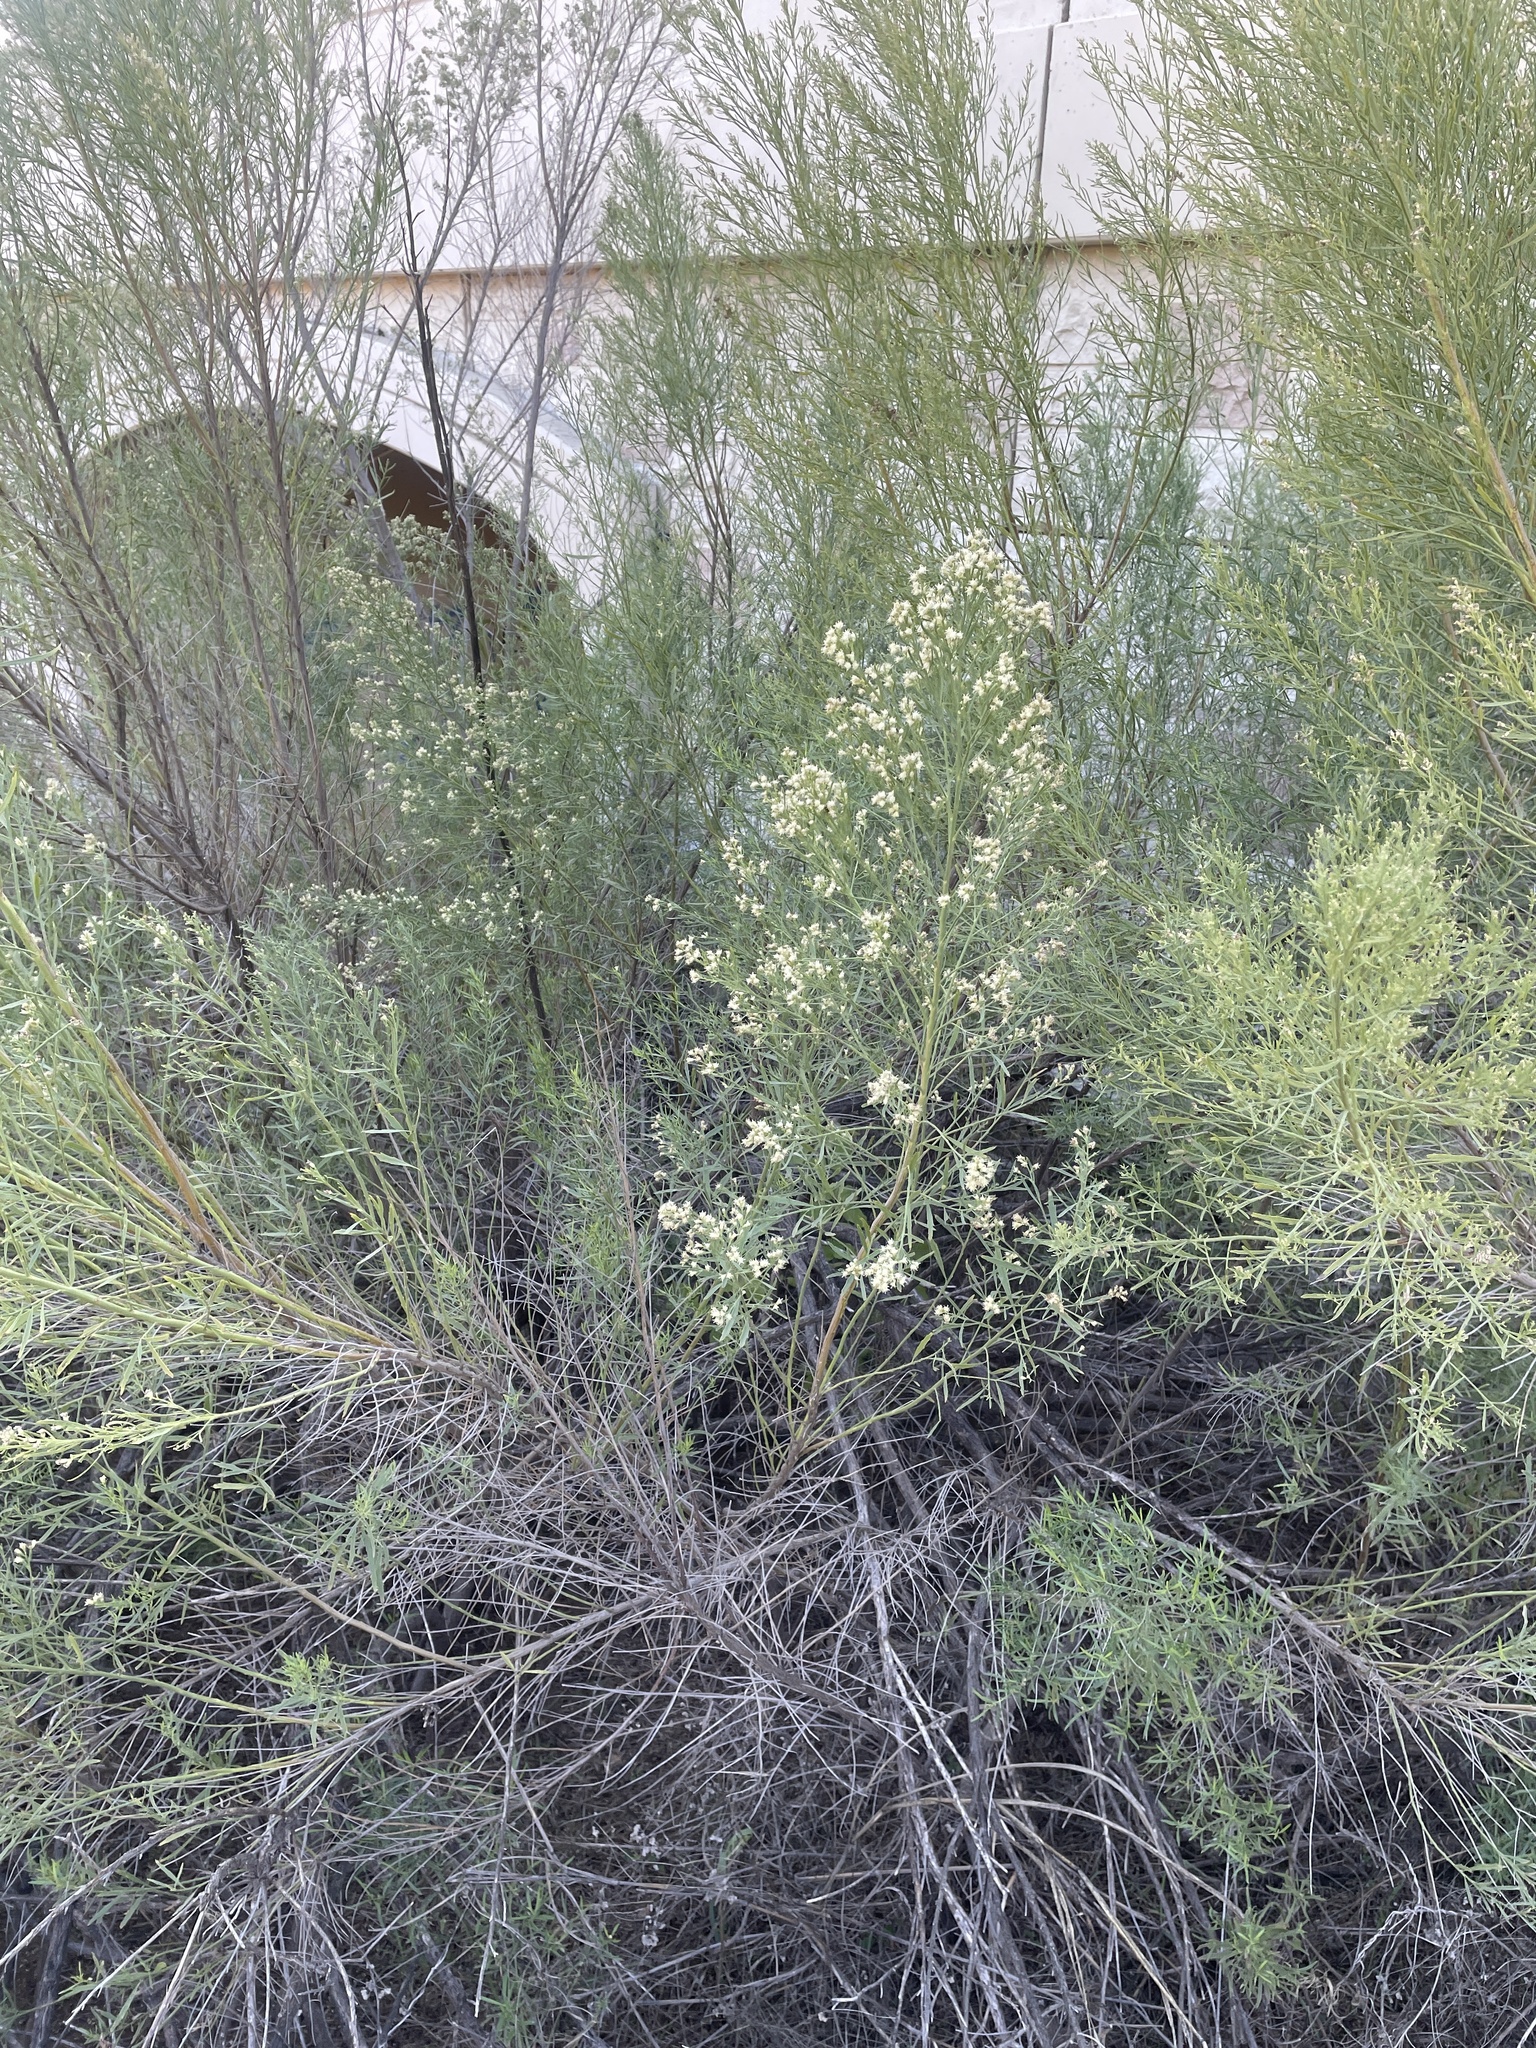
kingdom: Plantae
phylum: Tracheophyta
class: Magnoliopsida
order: Asterales
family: Asteraceae
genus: Baccharis
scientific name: Baccharis neglecta
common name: Roosevelt-weed
